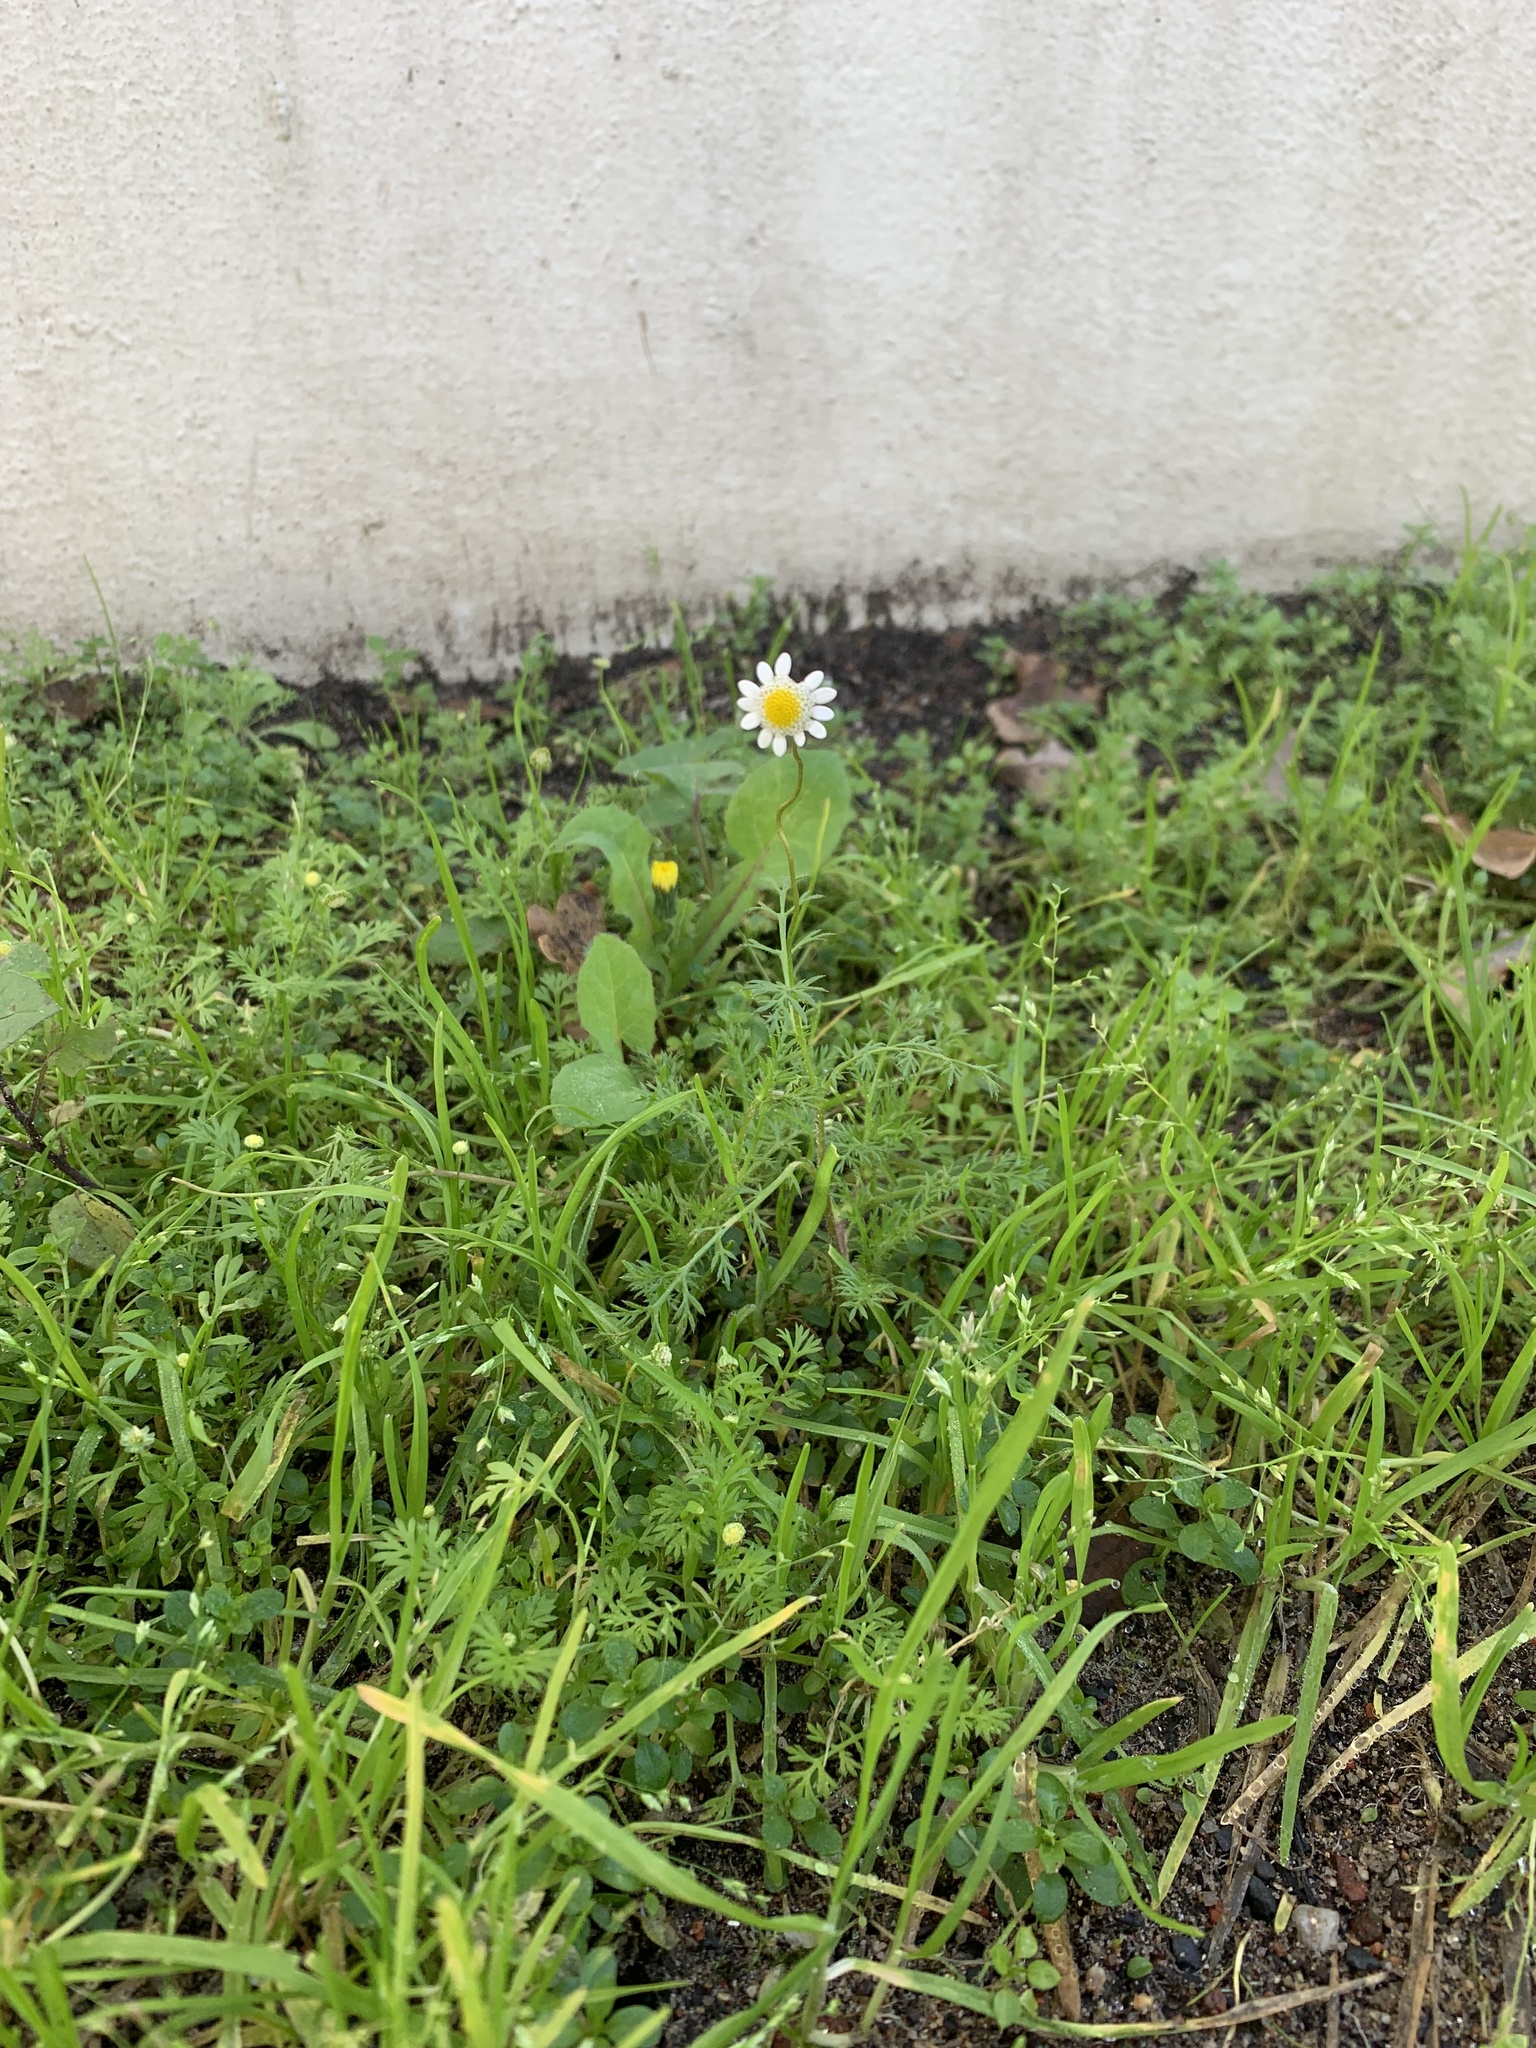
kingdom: Plantae
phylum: Tracheophyta
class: Magnoliopsida
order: Asterales
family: Asteraceae
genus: Cotula
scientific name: Cotula turbinata
